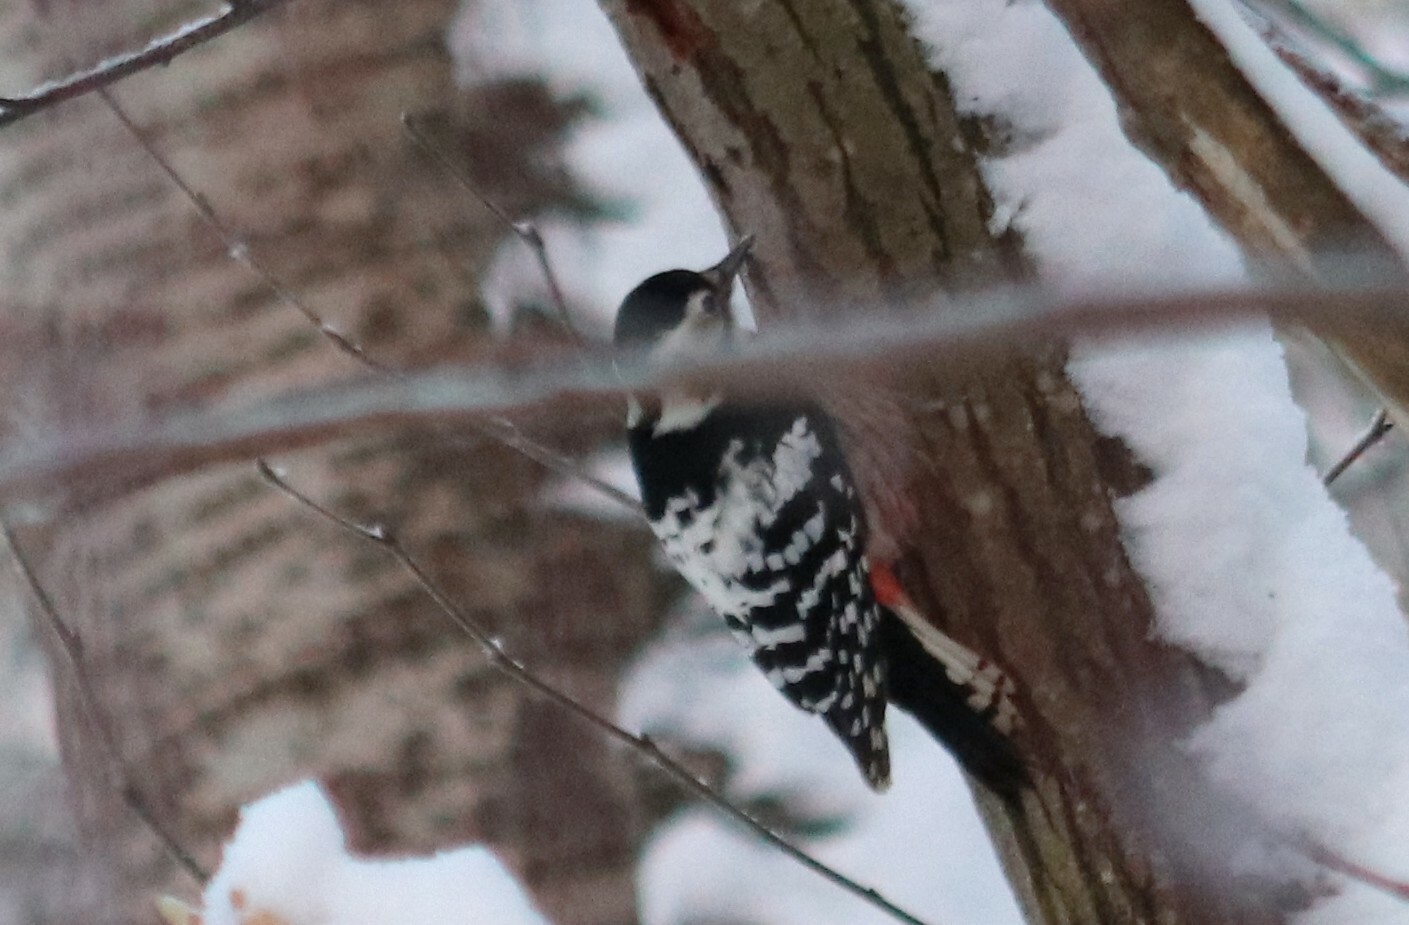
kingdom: Animalia
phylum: Chordata
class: Aves
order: Piciformes
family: Picidae
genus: Dendrocopos
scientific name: Dendrocopos leucotos
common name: White-backed woodpecker
